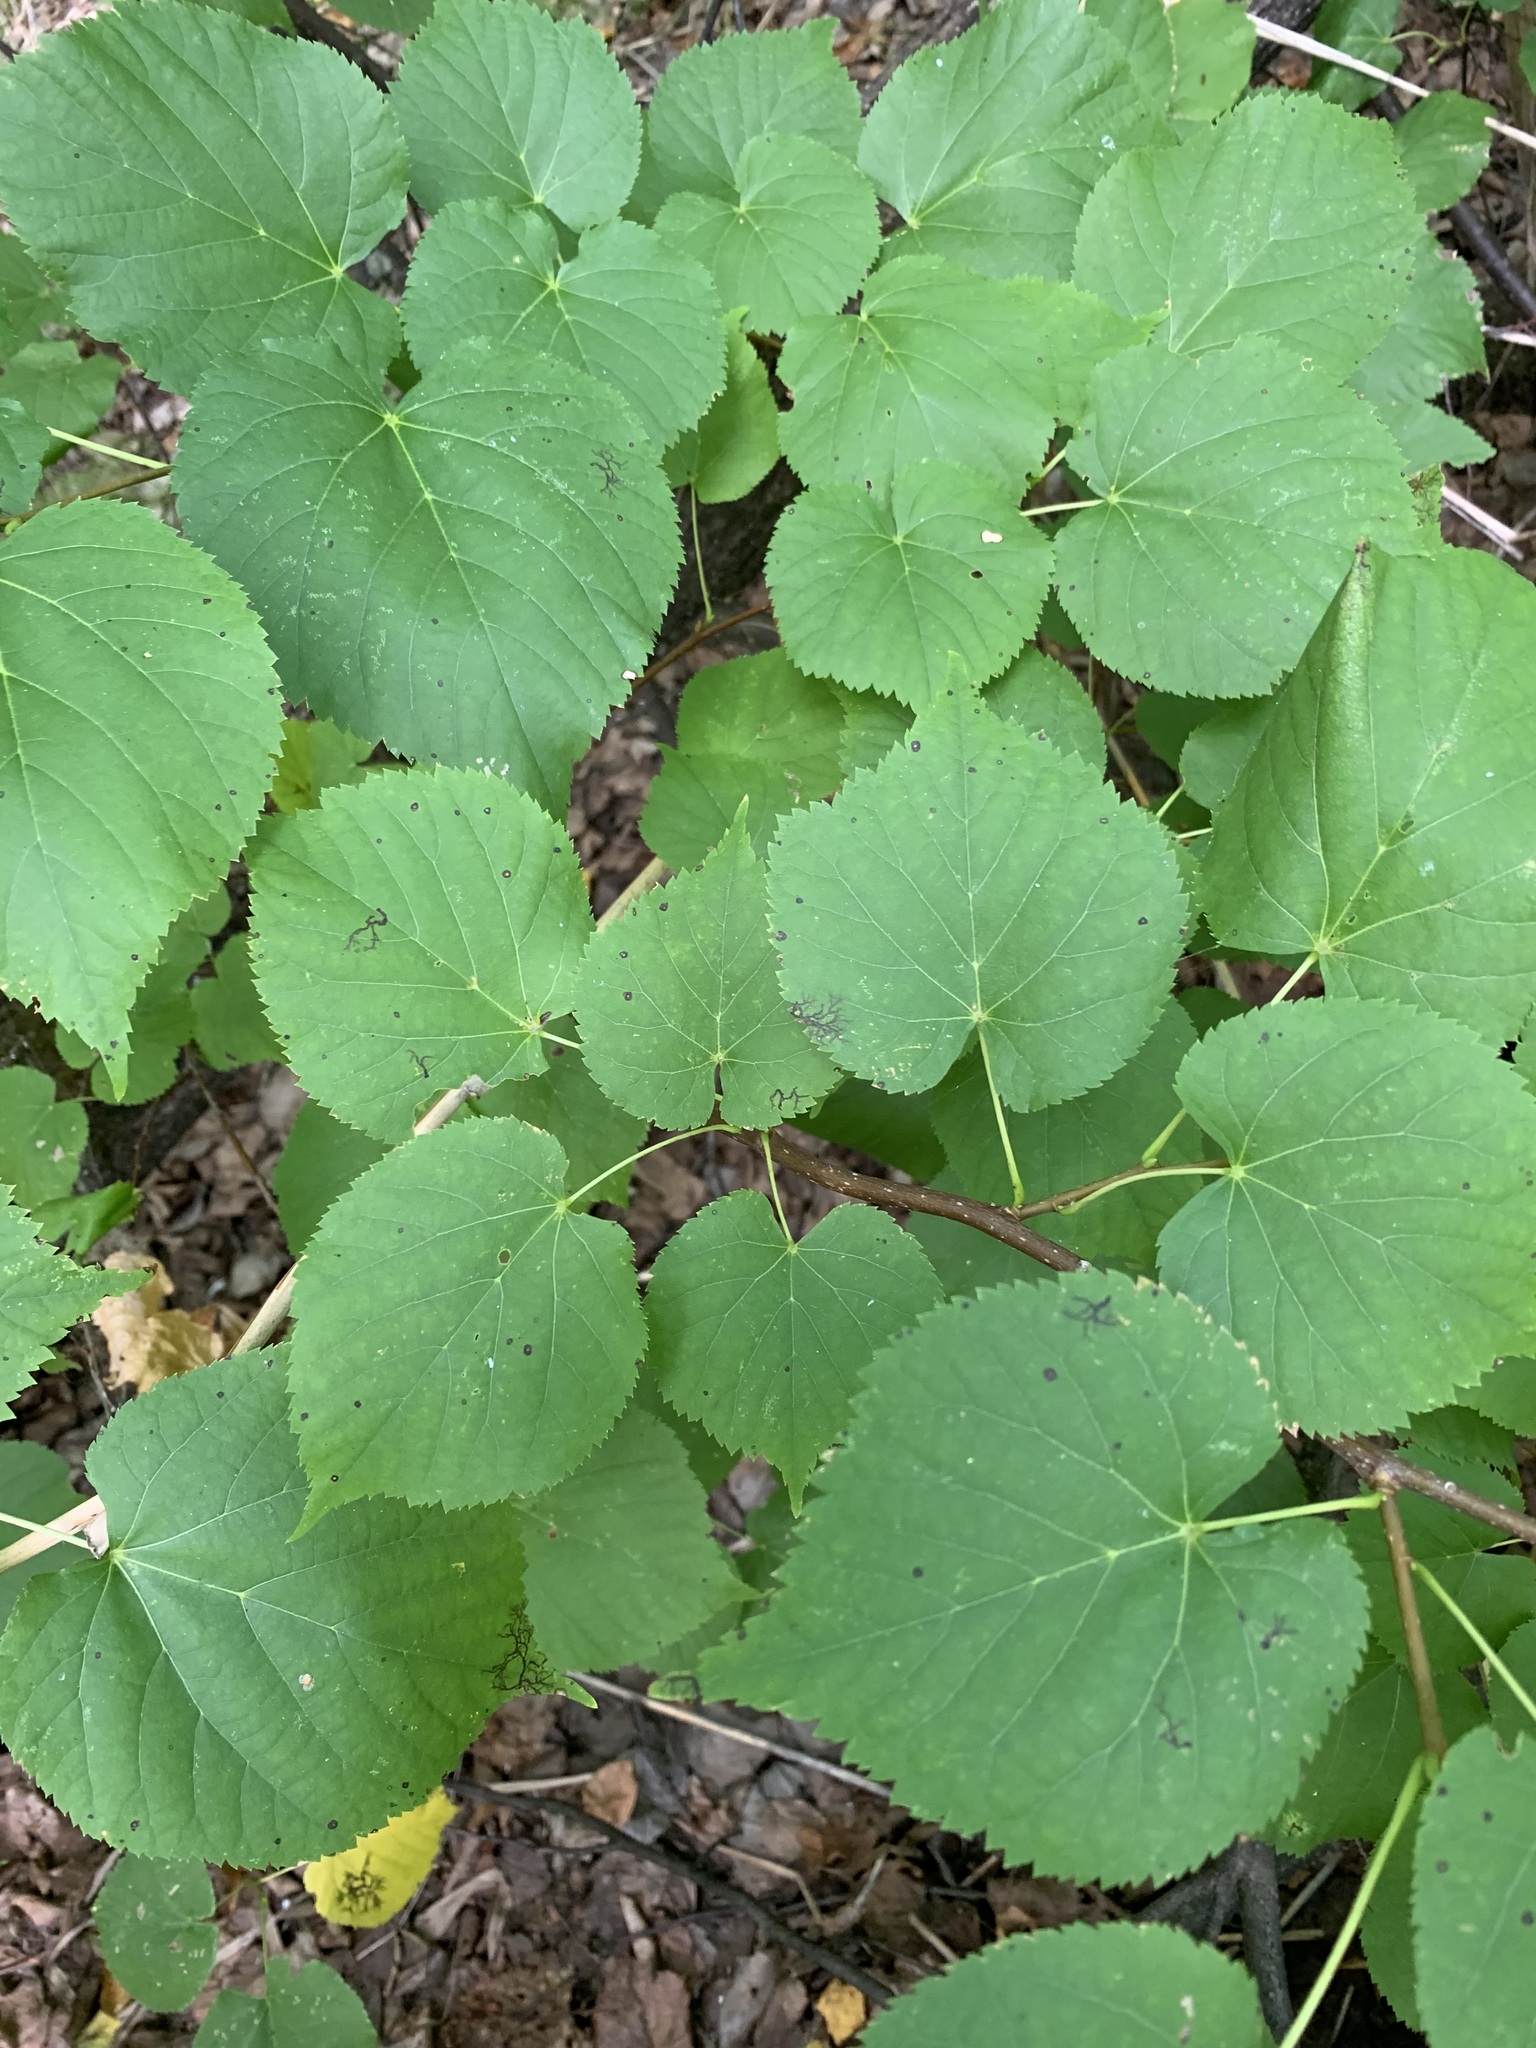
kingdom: Plantae
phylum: Tracheophyta
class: Magnoliopsida
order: Malvales
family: Malvaceae
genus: Tilia
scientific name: Tilia cordata
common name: Small-leaved lime
